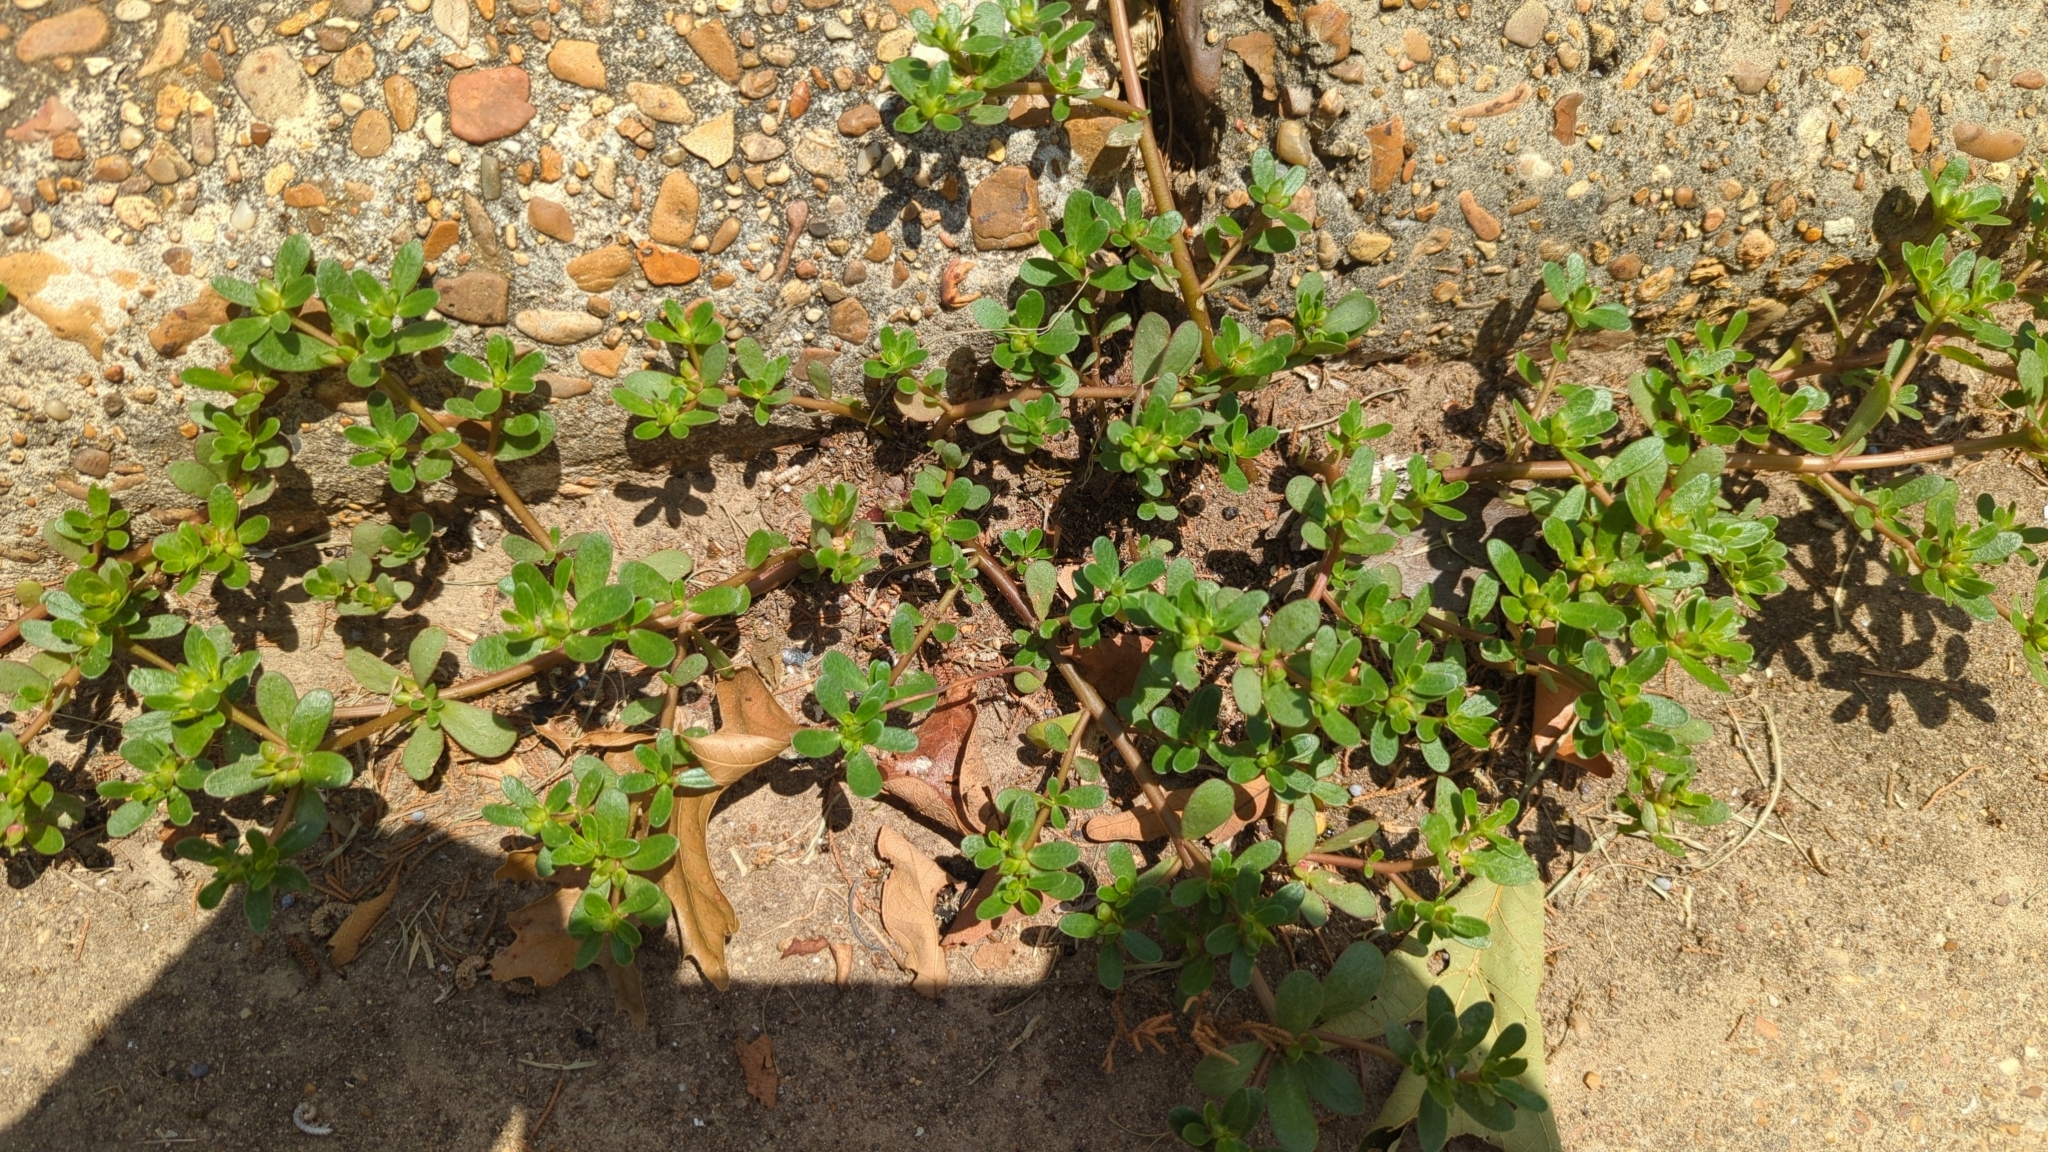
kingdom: Plantae
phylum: Tracheophyta
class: Magnoliopsida
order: Caryophyllales
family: Portulacaceae
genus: Portulaca
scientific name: Portulaca oleracea
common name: Common purslane
